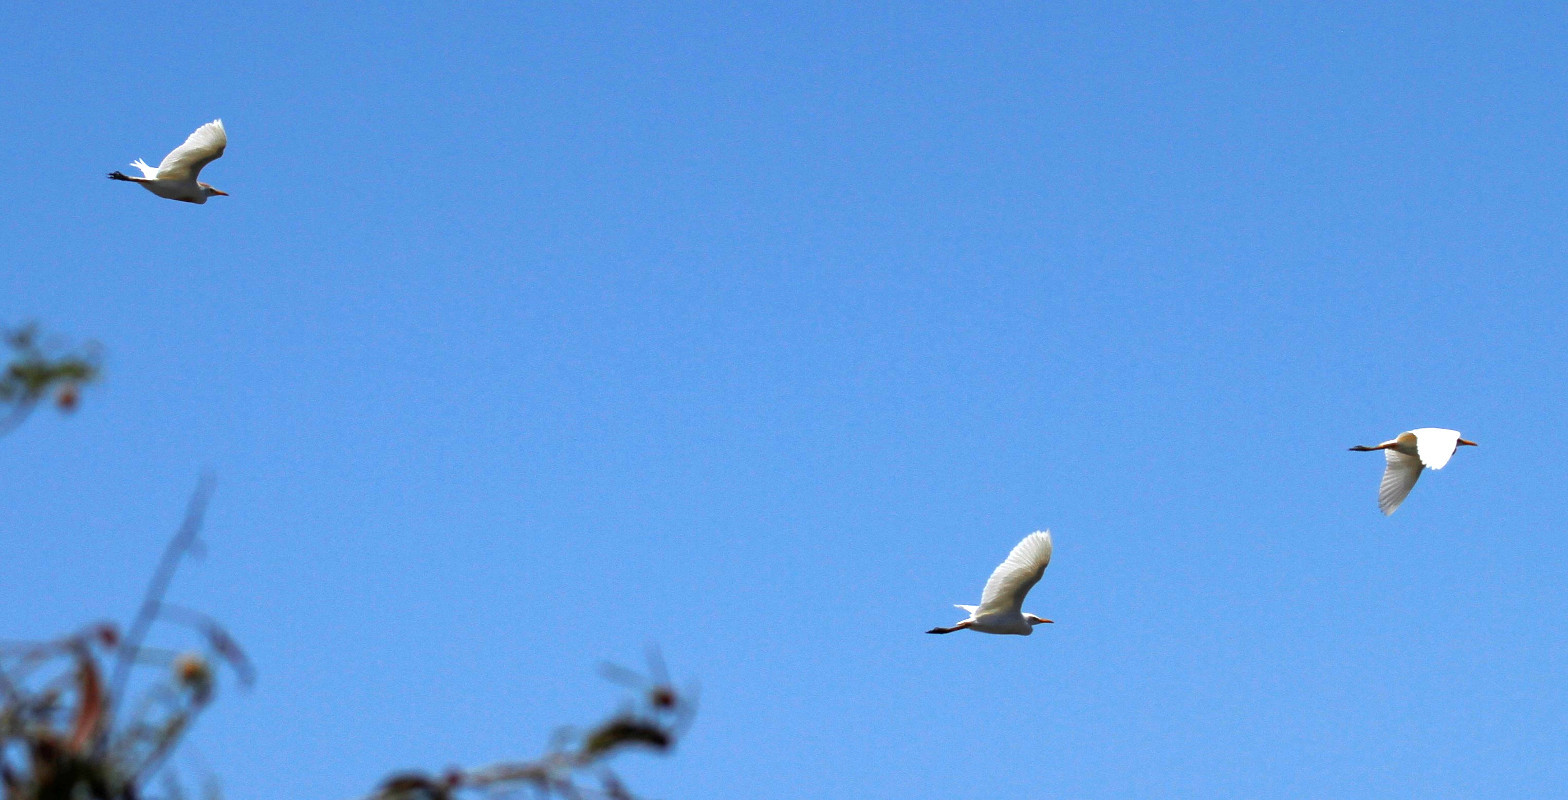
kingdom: Animalia
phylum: Chordata
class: Aves
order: Pelecaniformes
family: Ardeidae
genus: Bubulcus
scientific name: Bubulcus ibis
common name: Cattle egret
